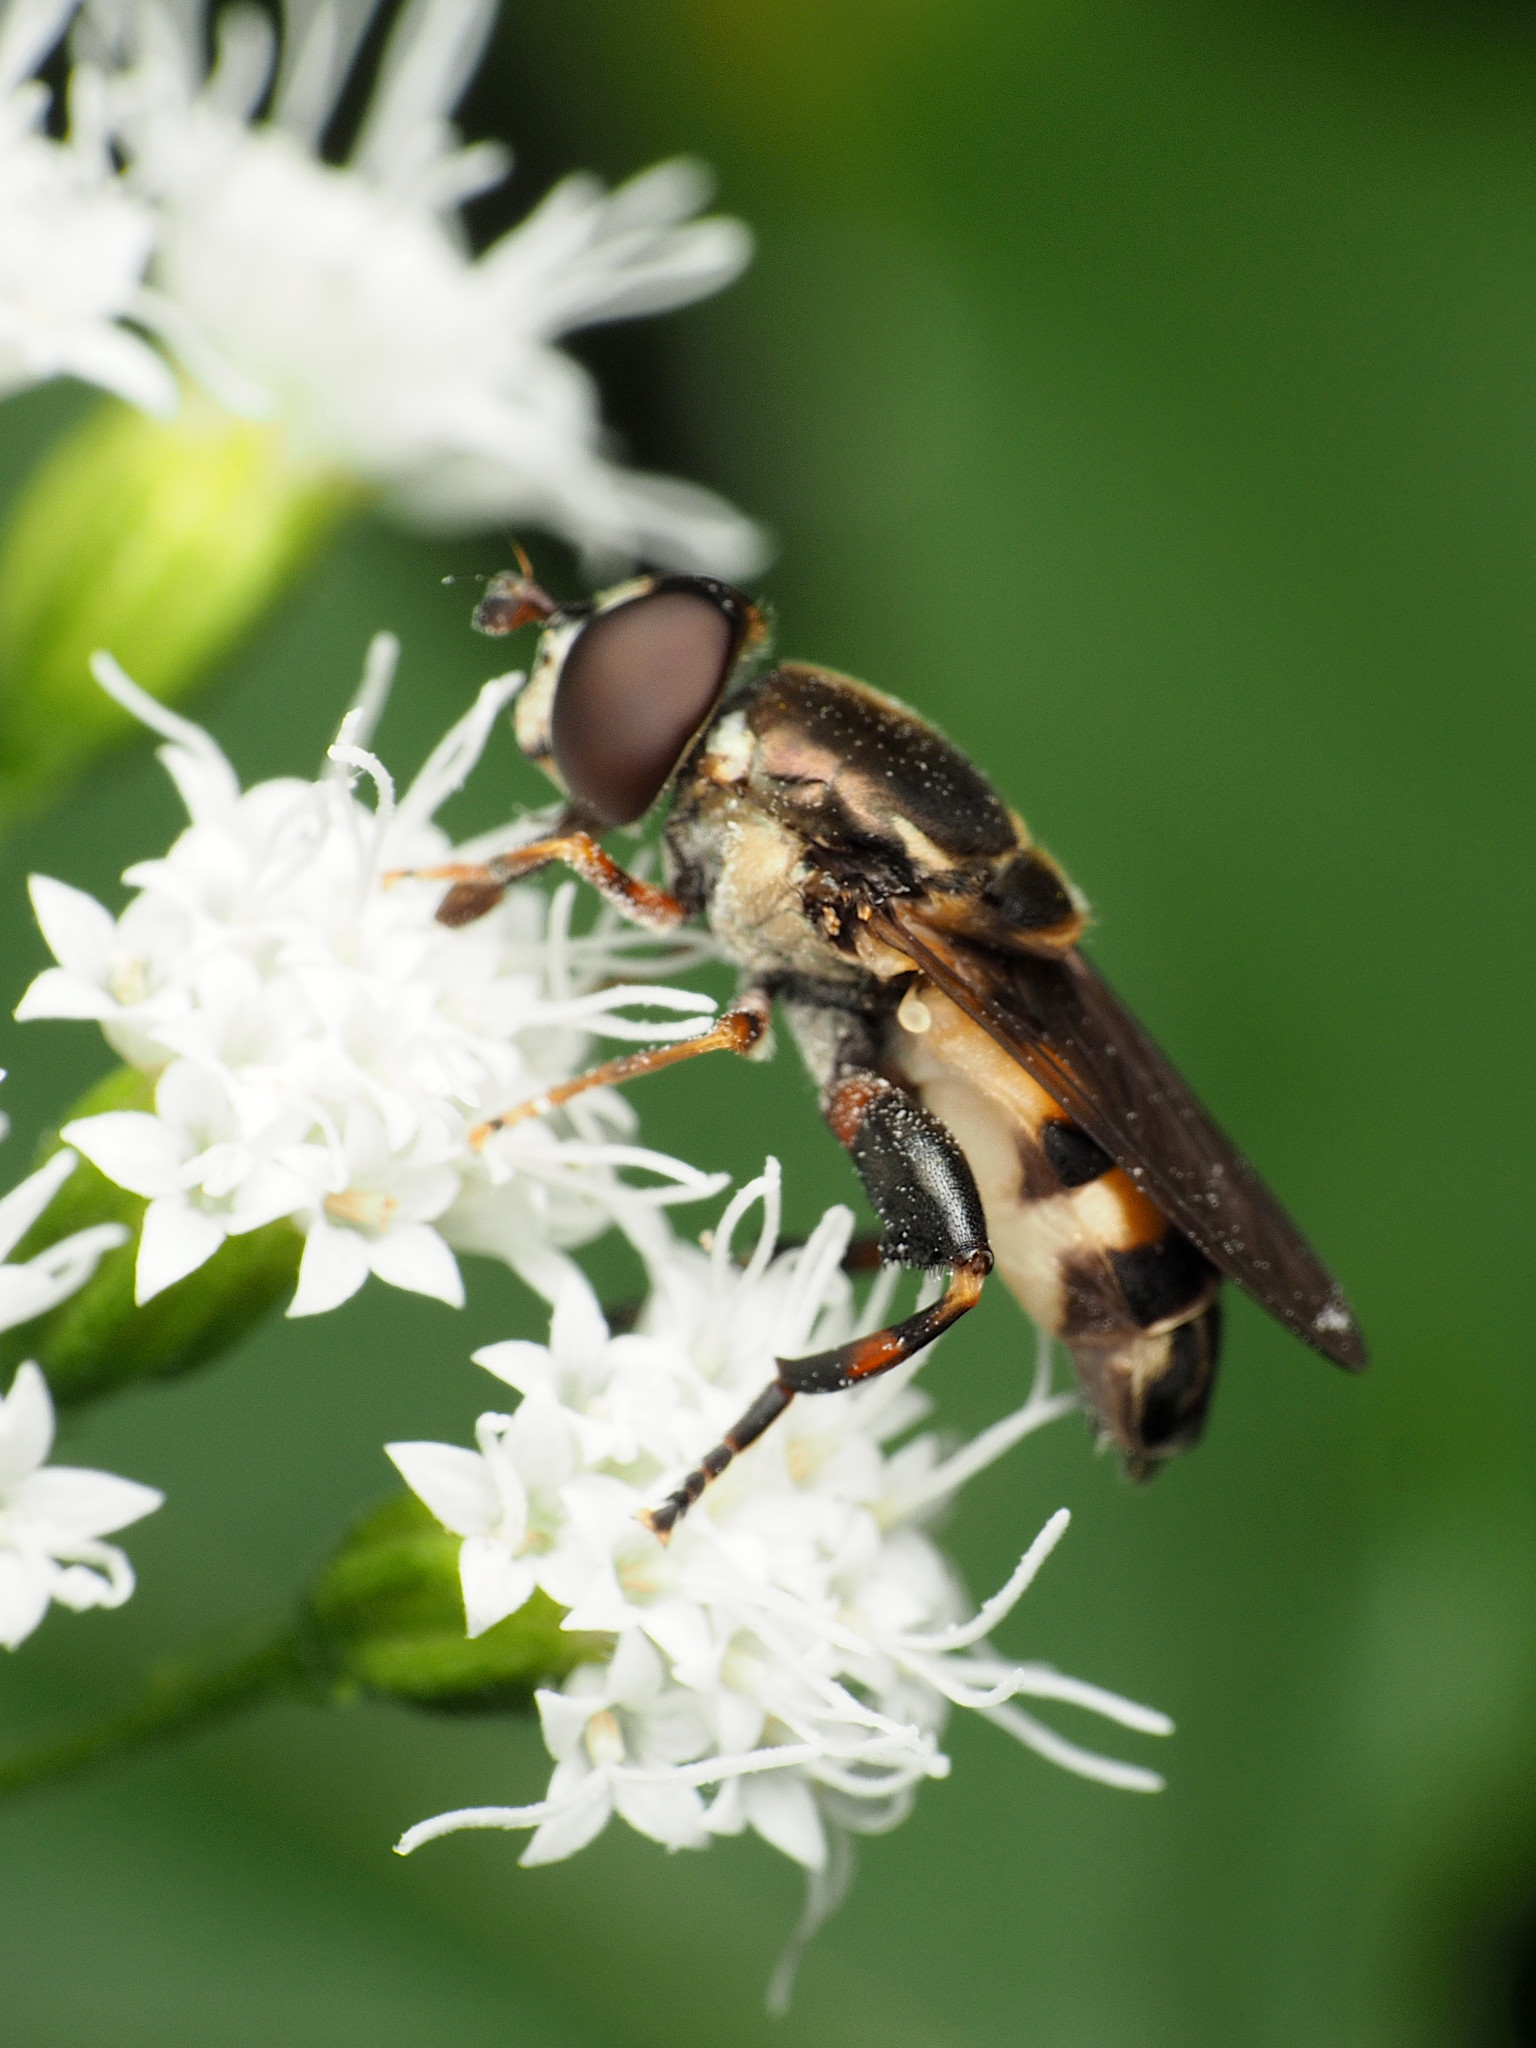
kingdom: Animalia
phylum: Arthropoda
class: Insecta
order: Diptera
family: Syrphidae
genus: Tropidia
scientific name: Tropidia albistylum
